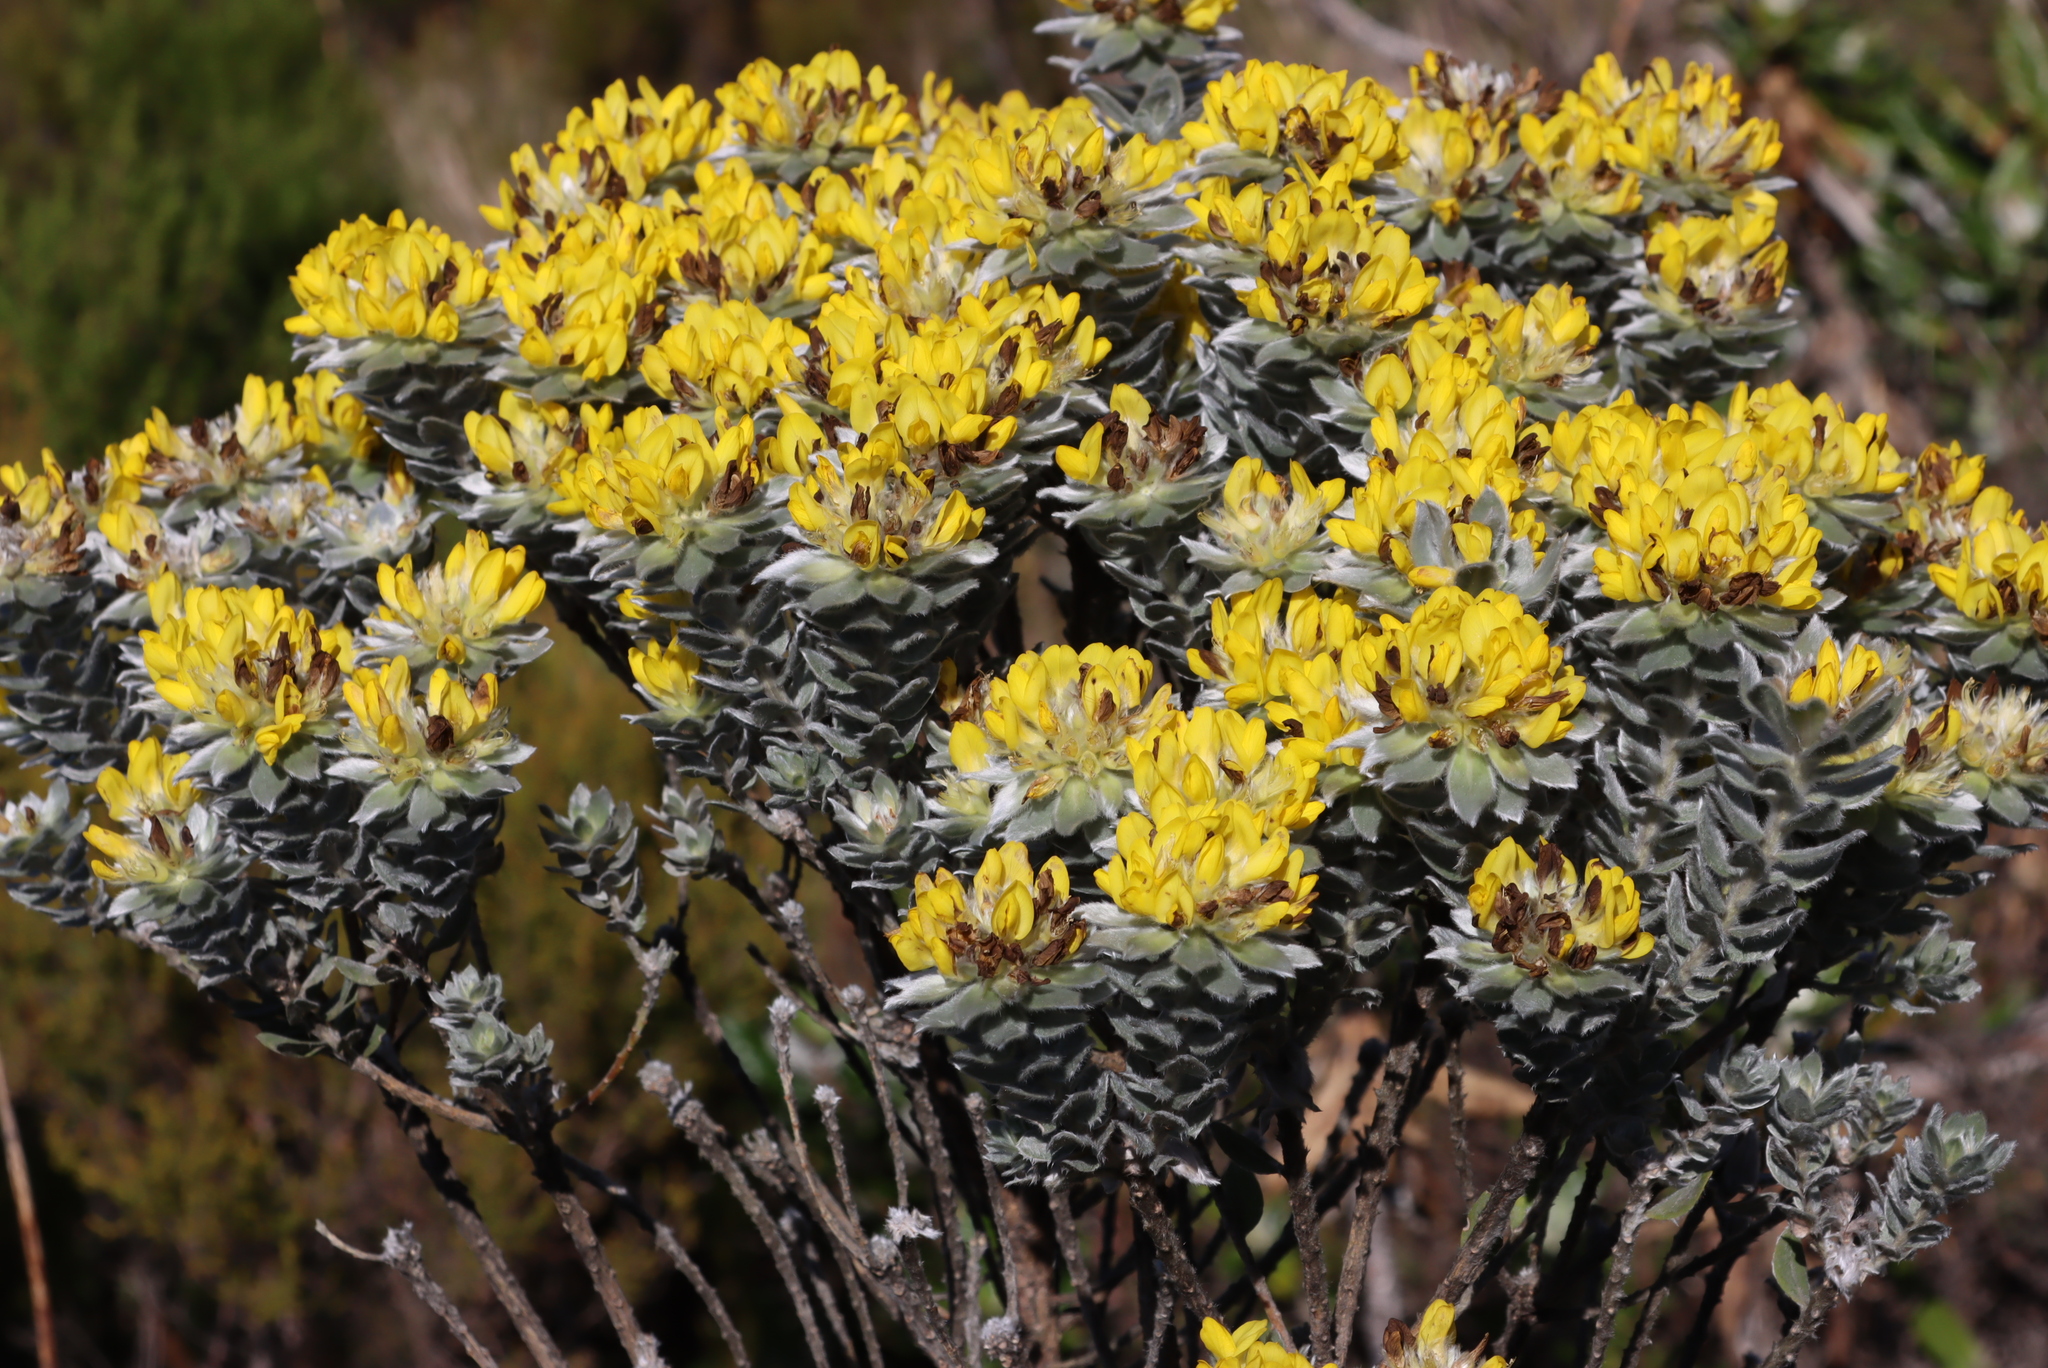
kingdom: Plantae
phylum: Tracheophyta
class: Magnoliopsida
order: Fabales
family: Fabaceae
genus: Xiphotheca
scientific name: Xiphotheca fruticosa
